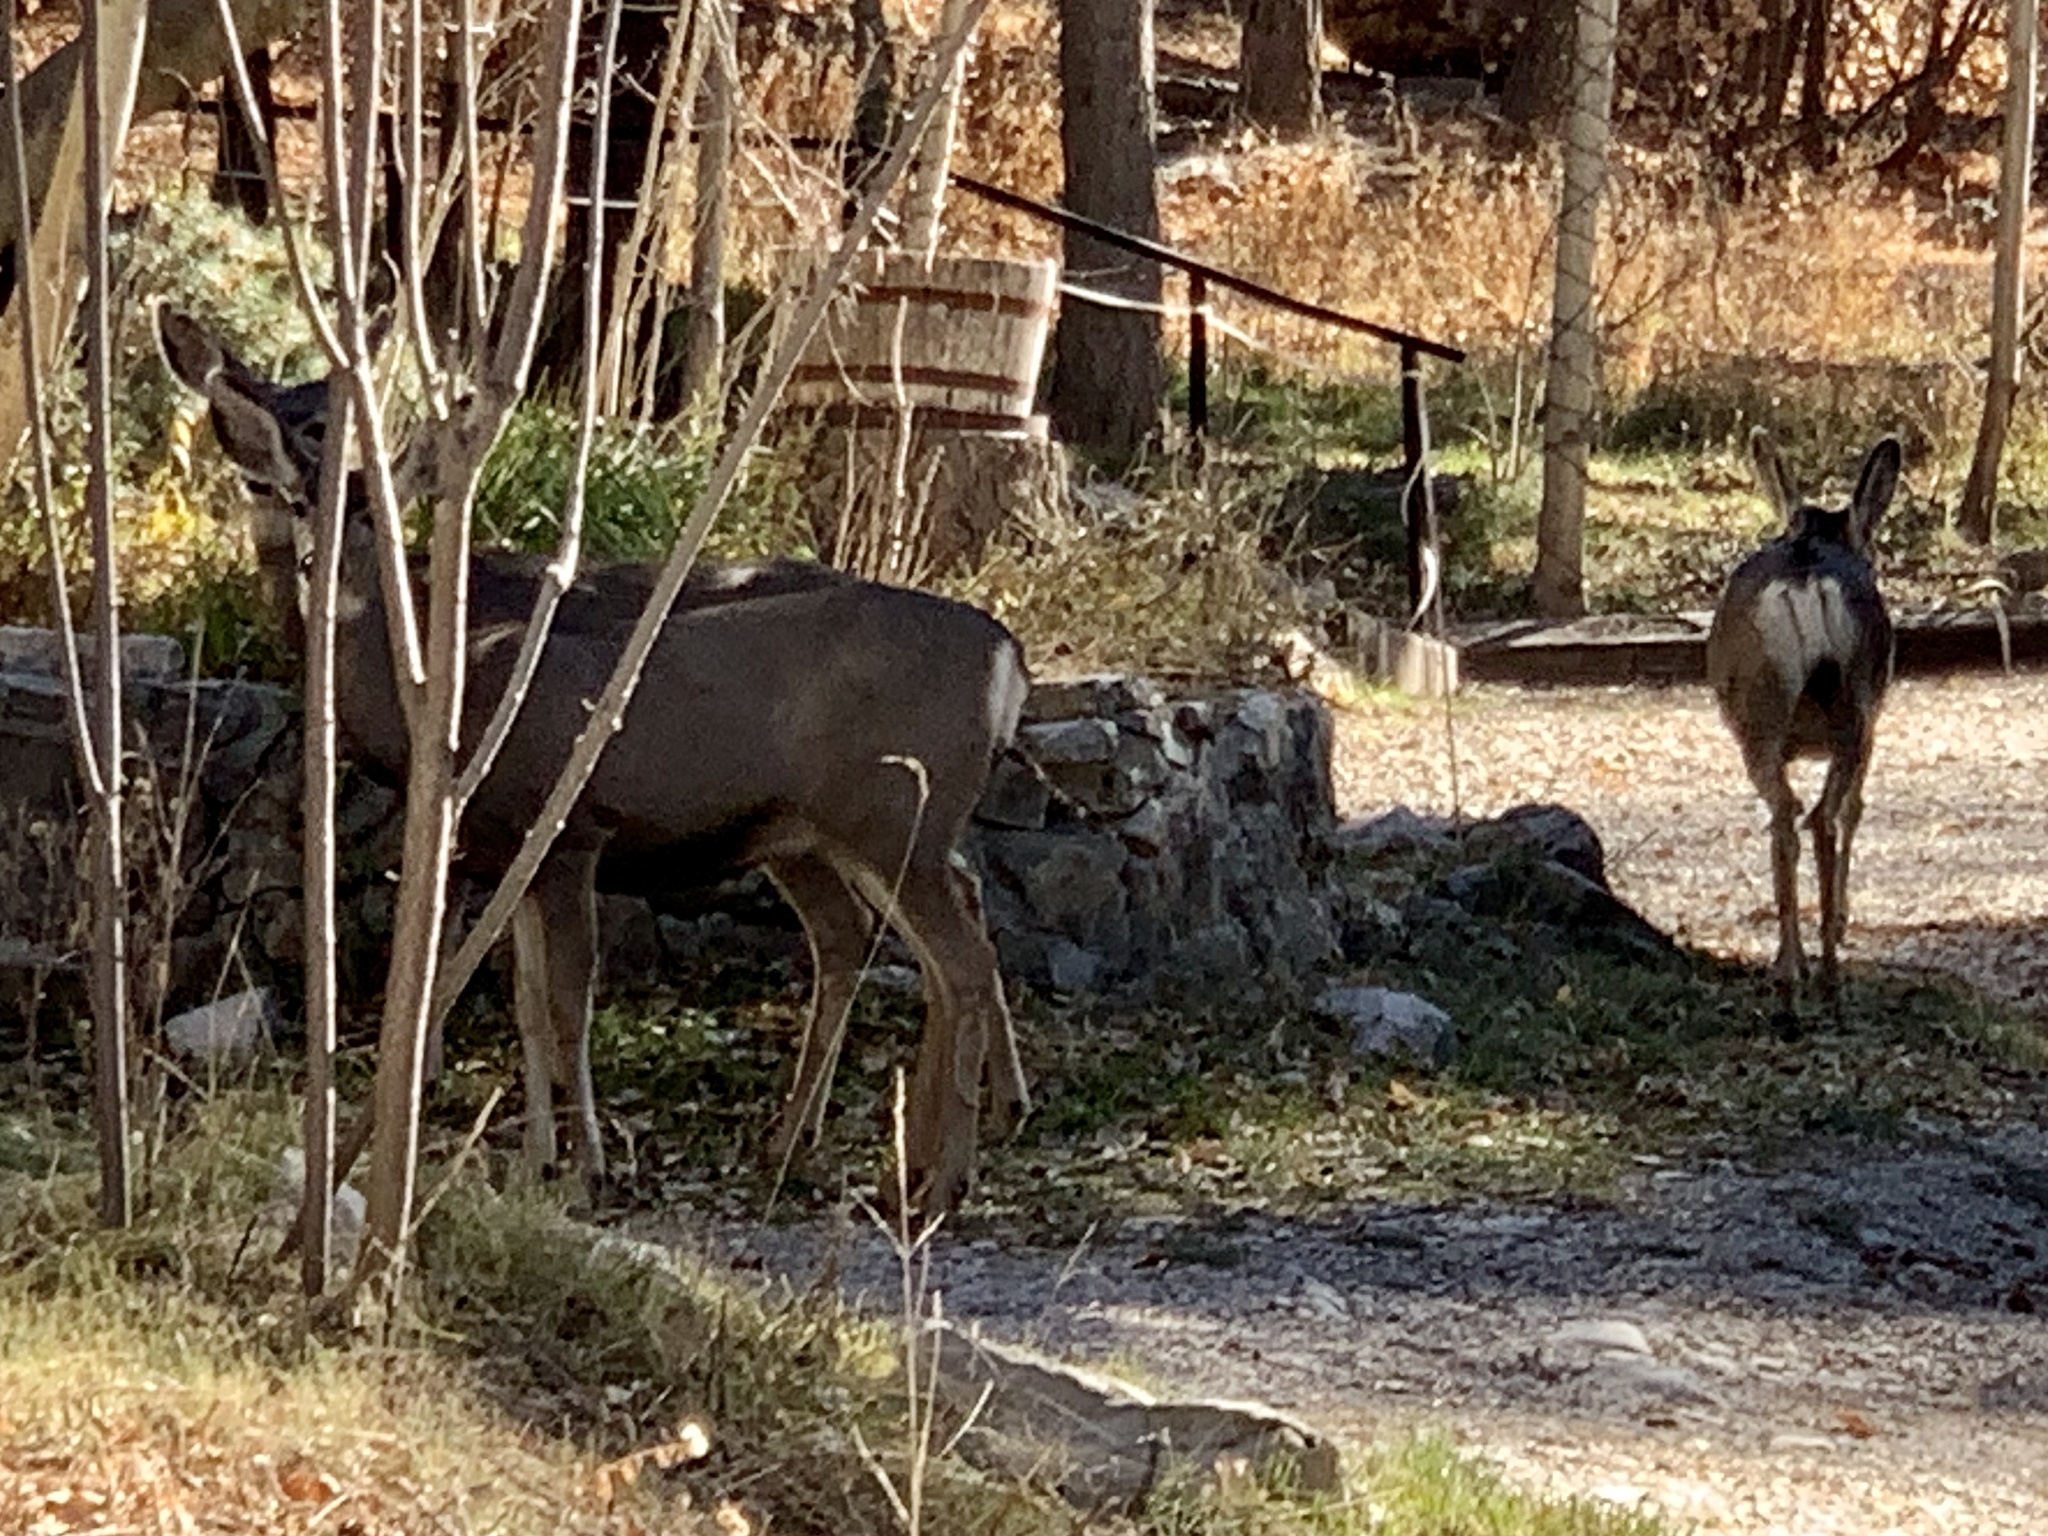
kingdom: Animalia
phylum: Chordata
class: Mammalia
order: Artiodactyla
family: Cervidae
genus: Odocoileus
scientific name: Odocoileus hemionus
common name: Mule deer
